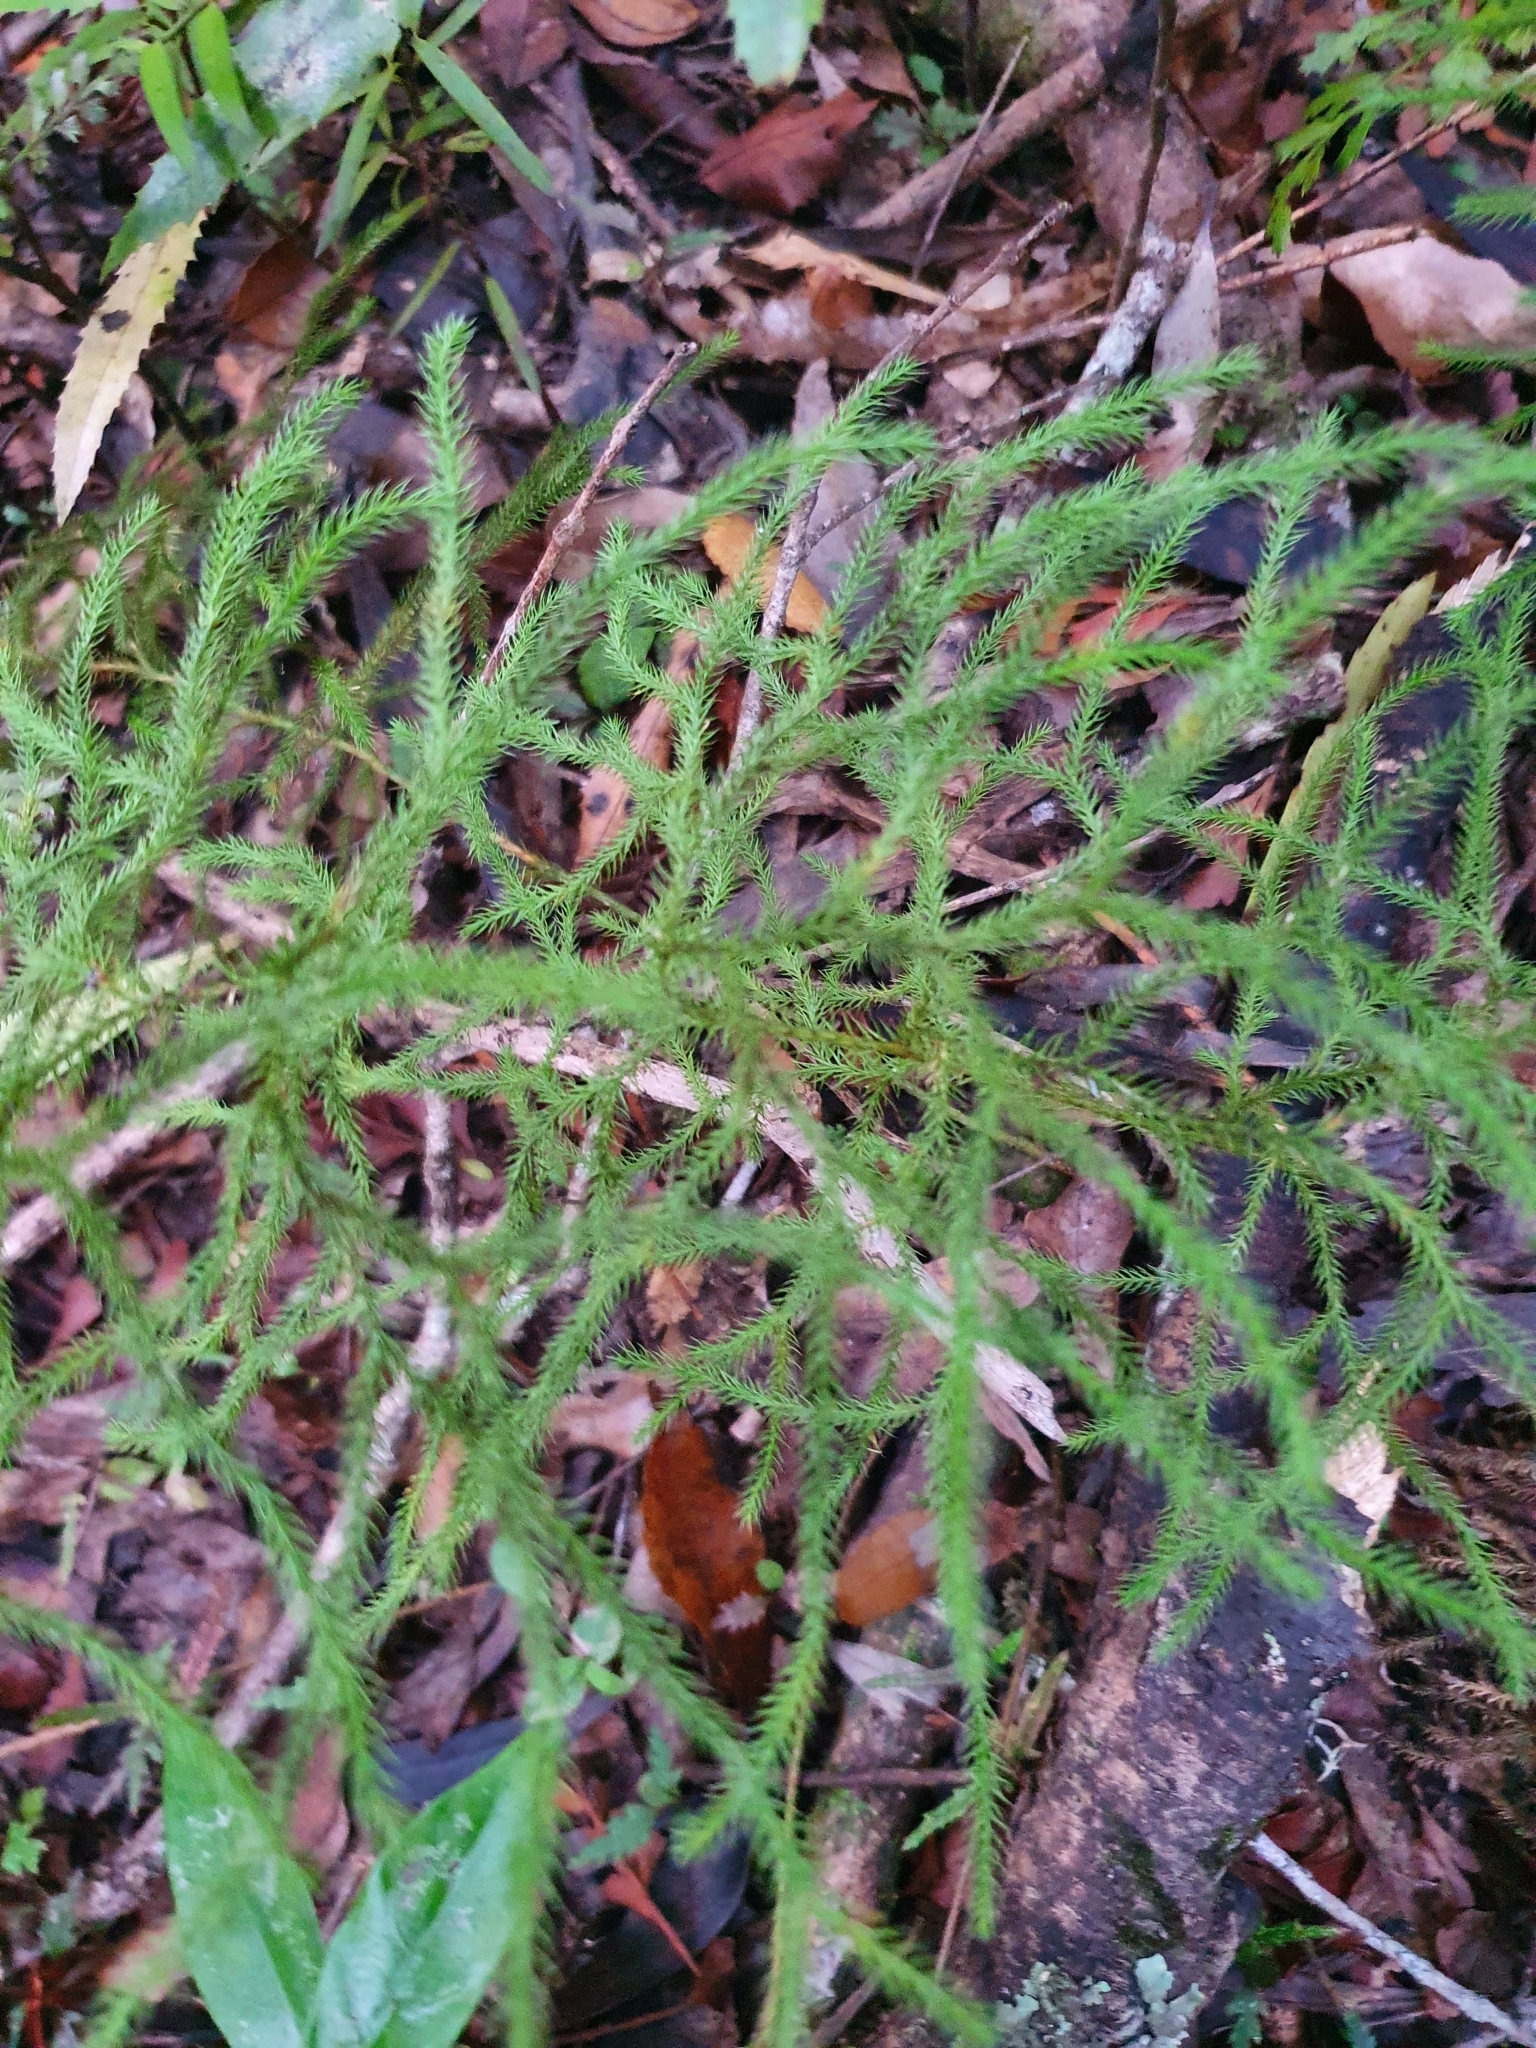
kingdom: Plantae
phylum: Tracheophyta
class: Lycopodiopsida
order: Lycopodiales
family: Lycopodiaceae
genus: Pseudolycopodium
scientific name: Pseudolycopodium densum
